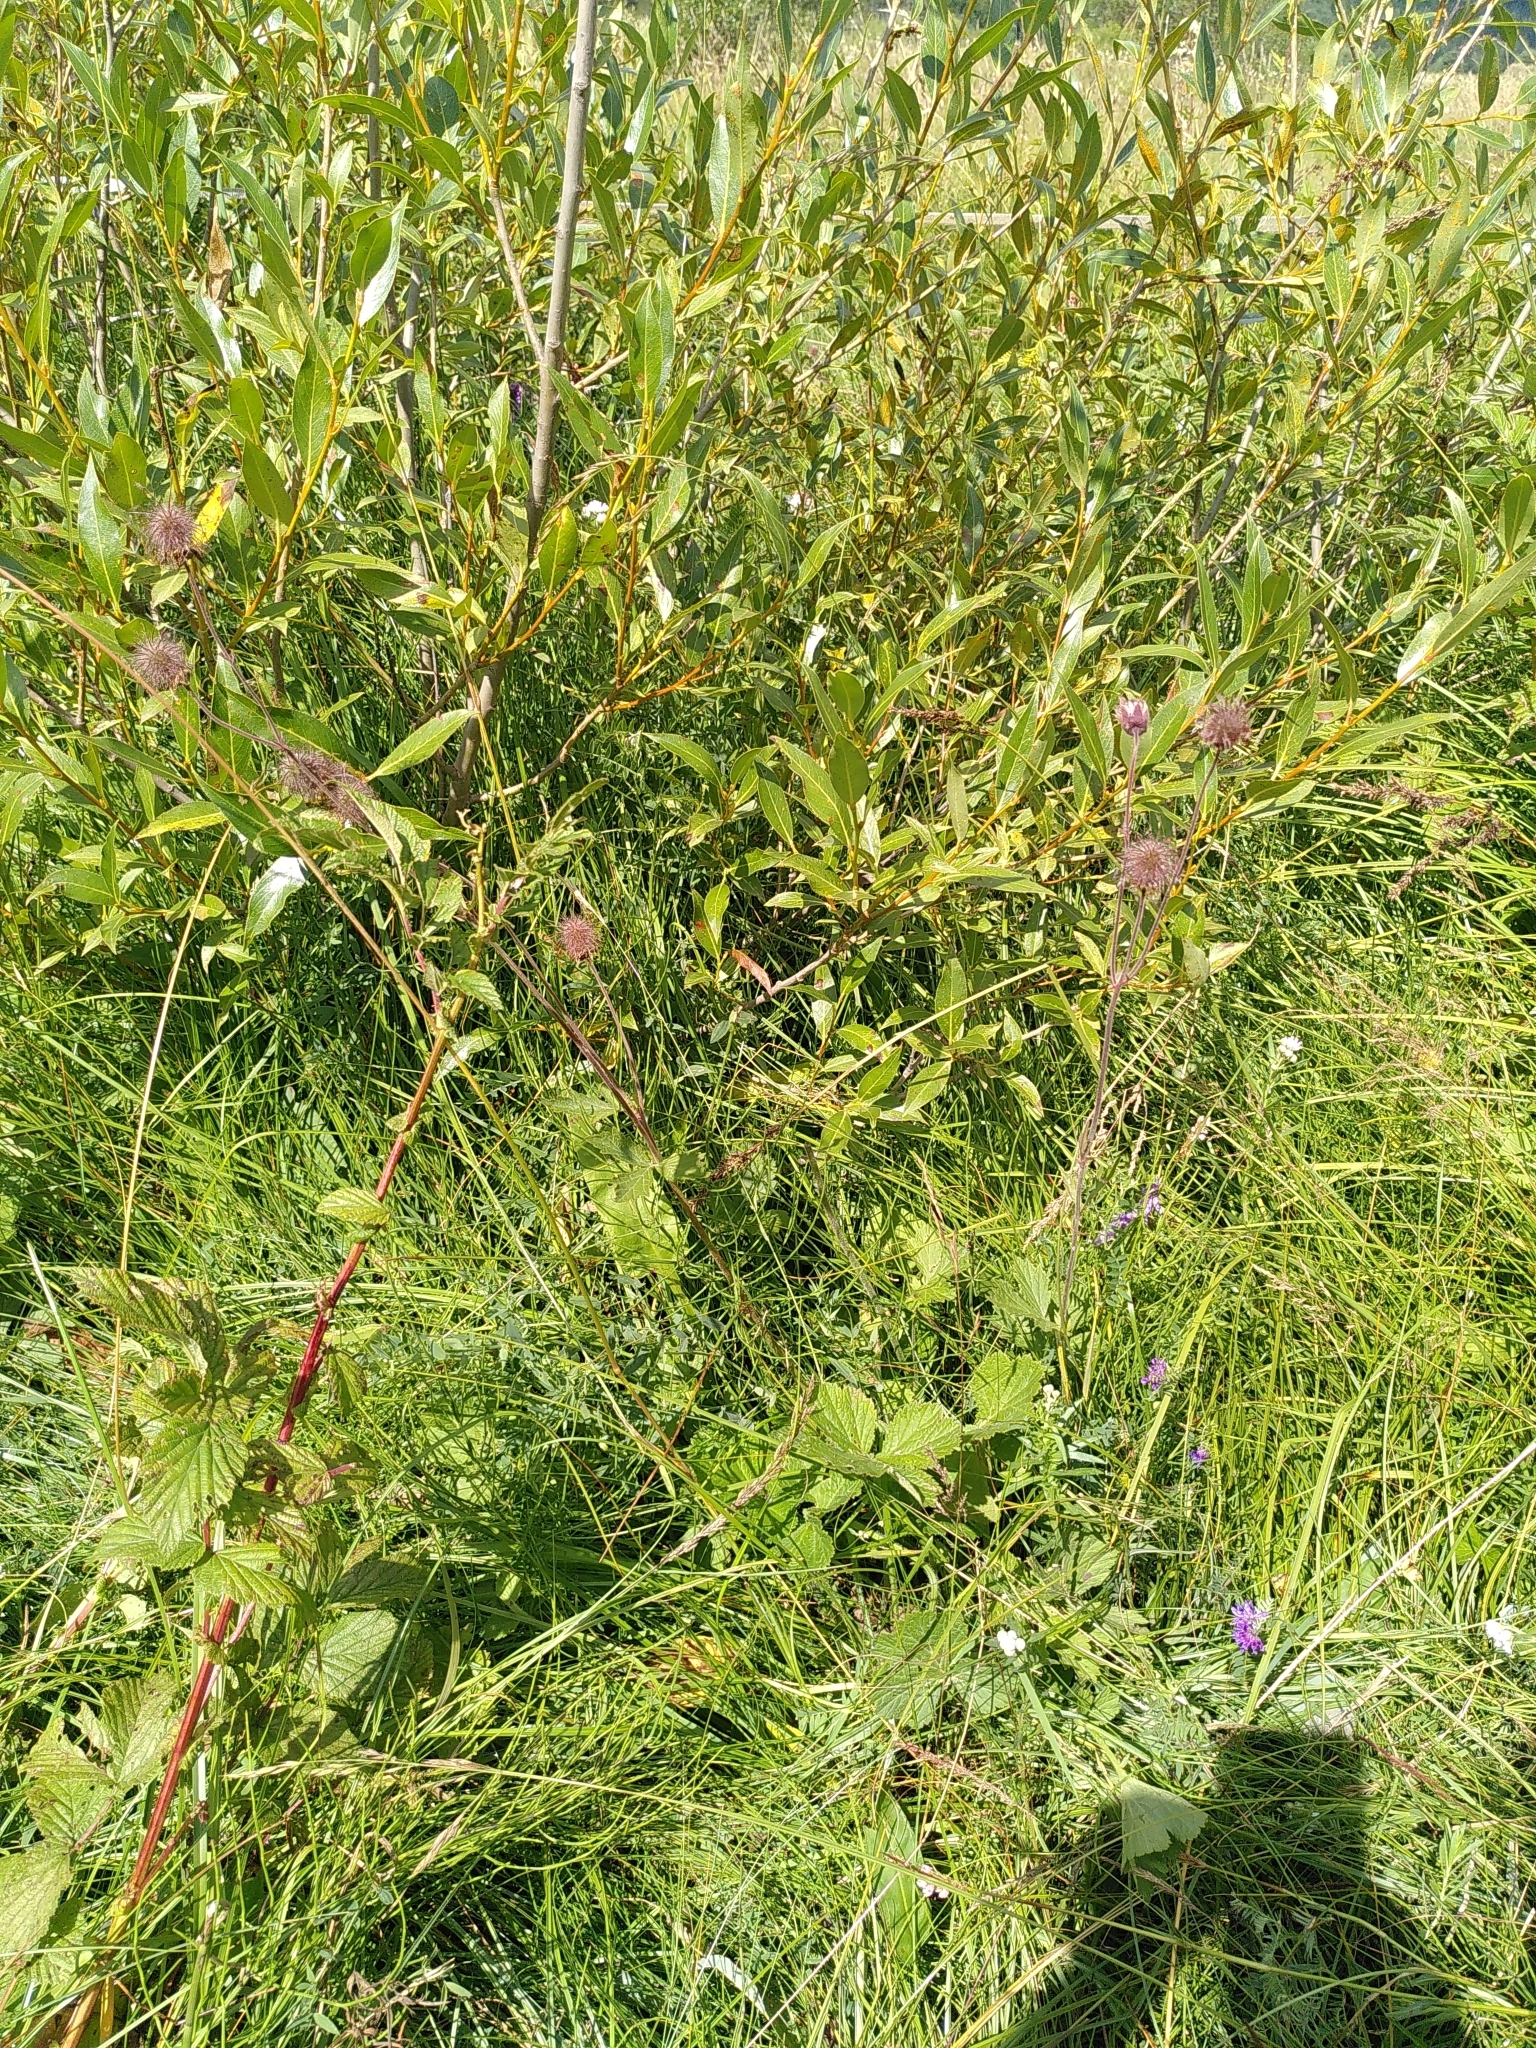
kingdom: Plantae
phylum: Tracheophyta
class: Magnoliopsida
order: Rosales
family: Rosaceae
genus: Geum
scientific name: Geum rivale
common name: Water avens
